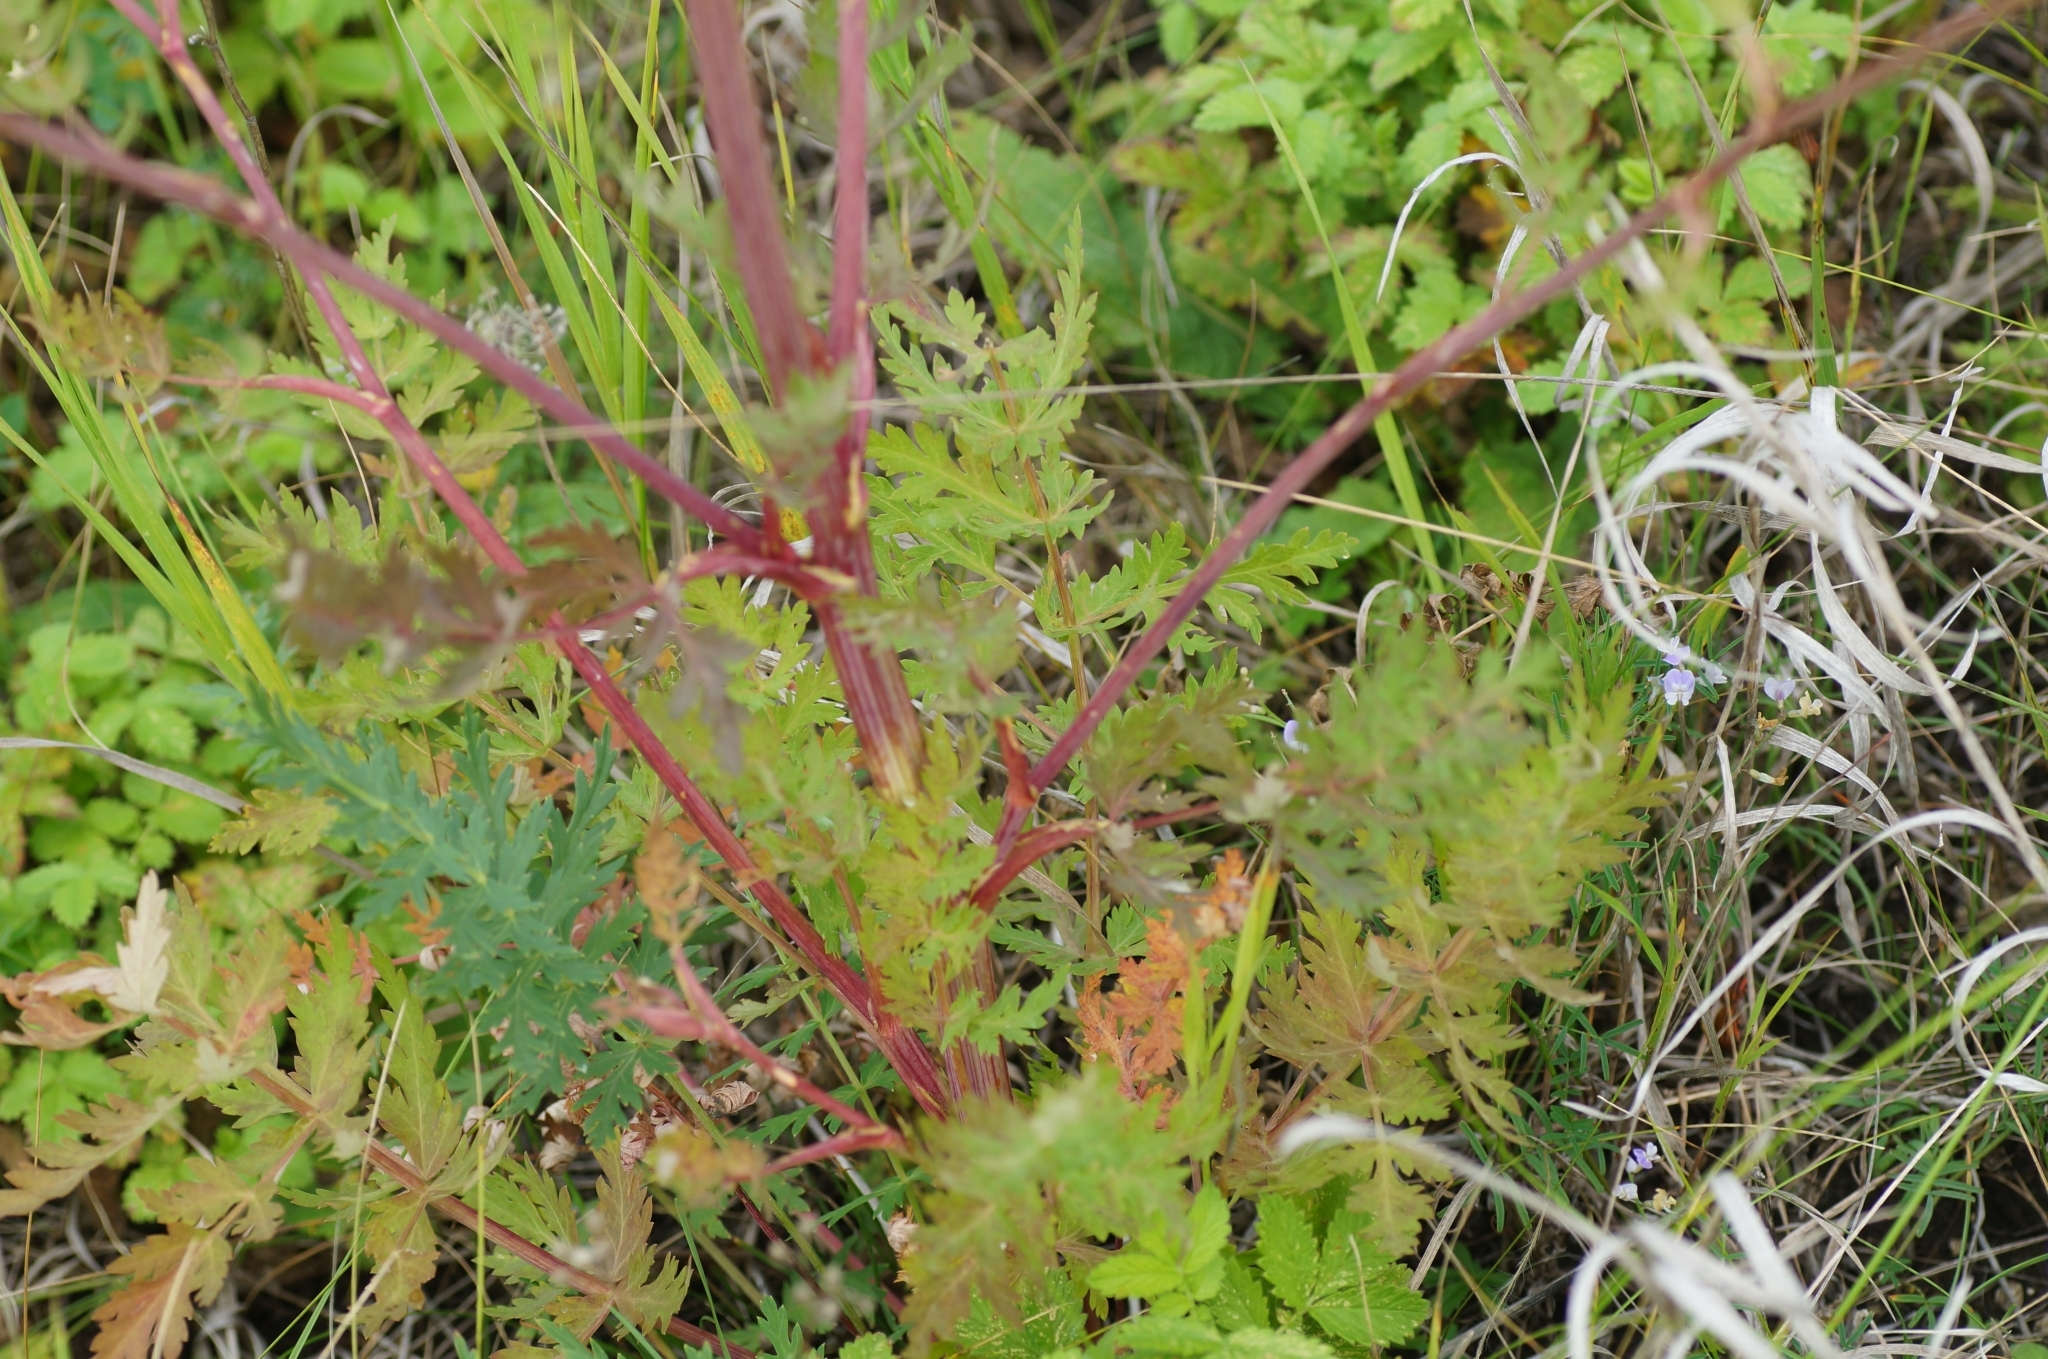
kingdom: Plantae
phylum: Tracheophyta
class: Magnoliopsida
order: Apiales
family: Apiaceae
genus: Seseli
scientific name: Seseli libanotis
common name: Mooncarrot
